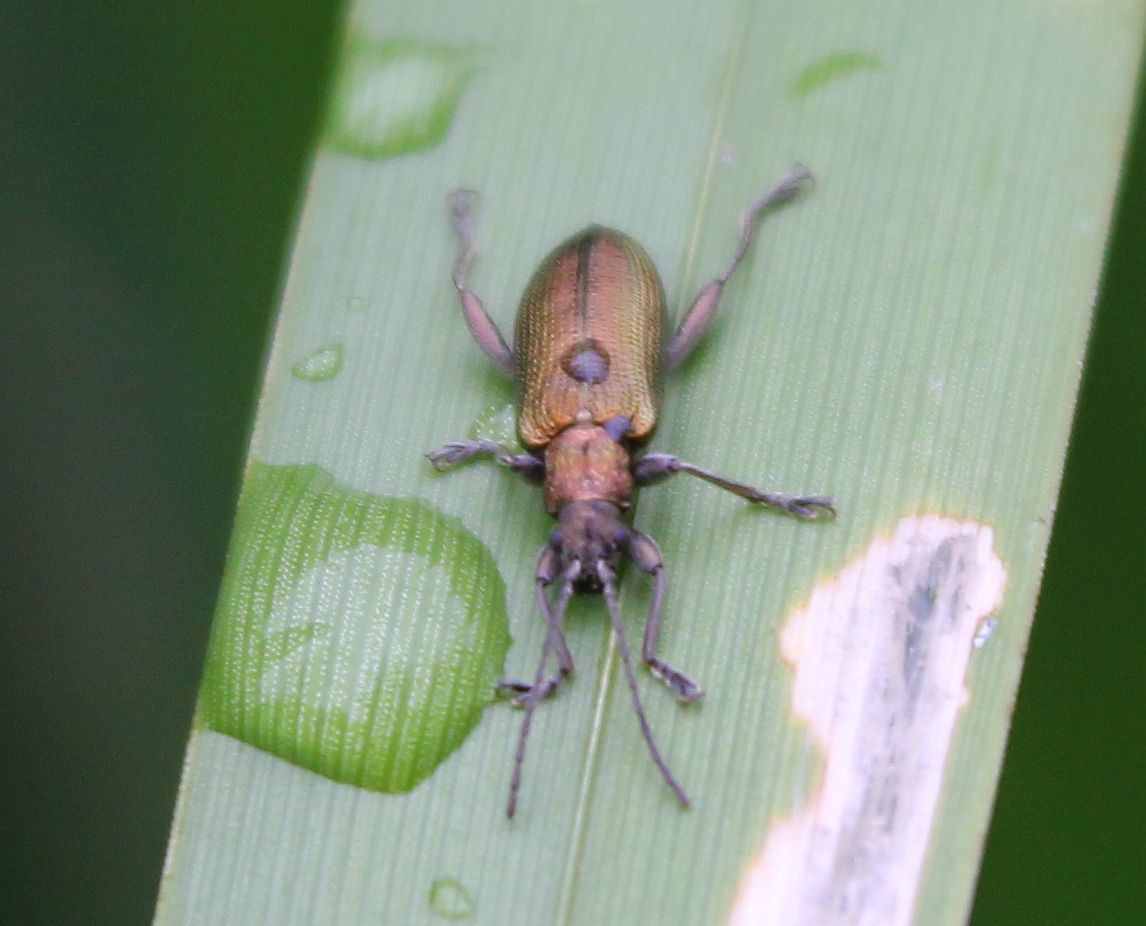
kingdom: Animalia
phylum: Arthropoda
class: Insecta
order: Coleoptera
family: Chrysomelidae
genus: Donacia
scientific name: Donacia semicuprea
